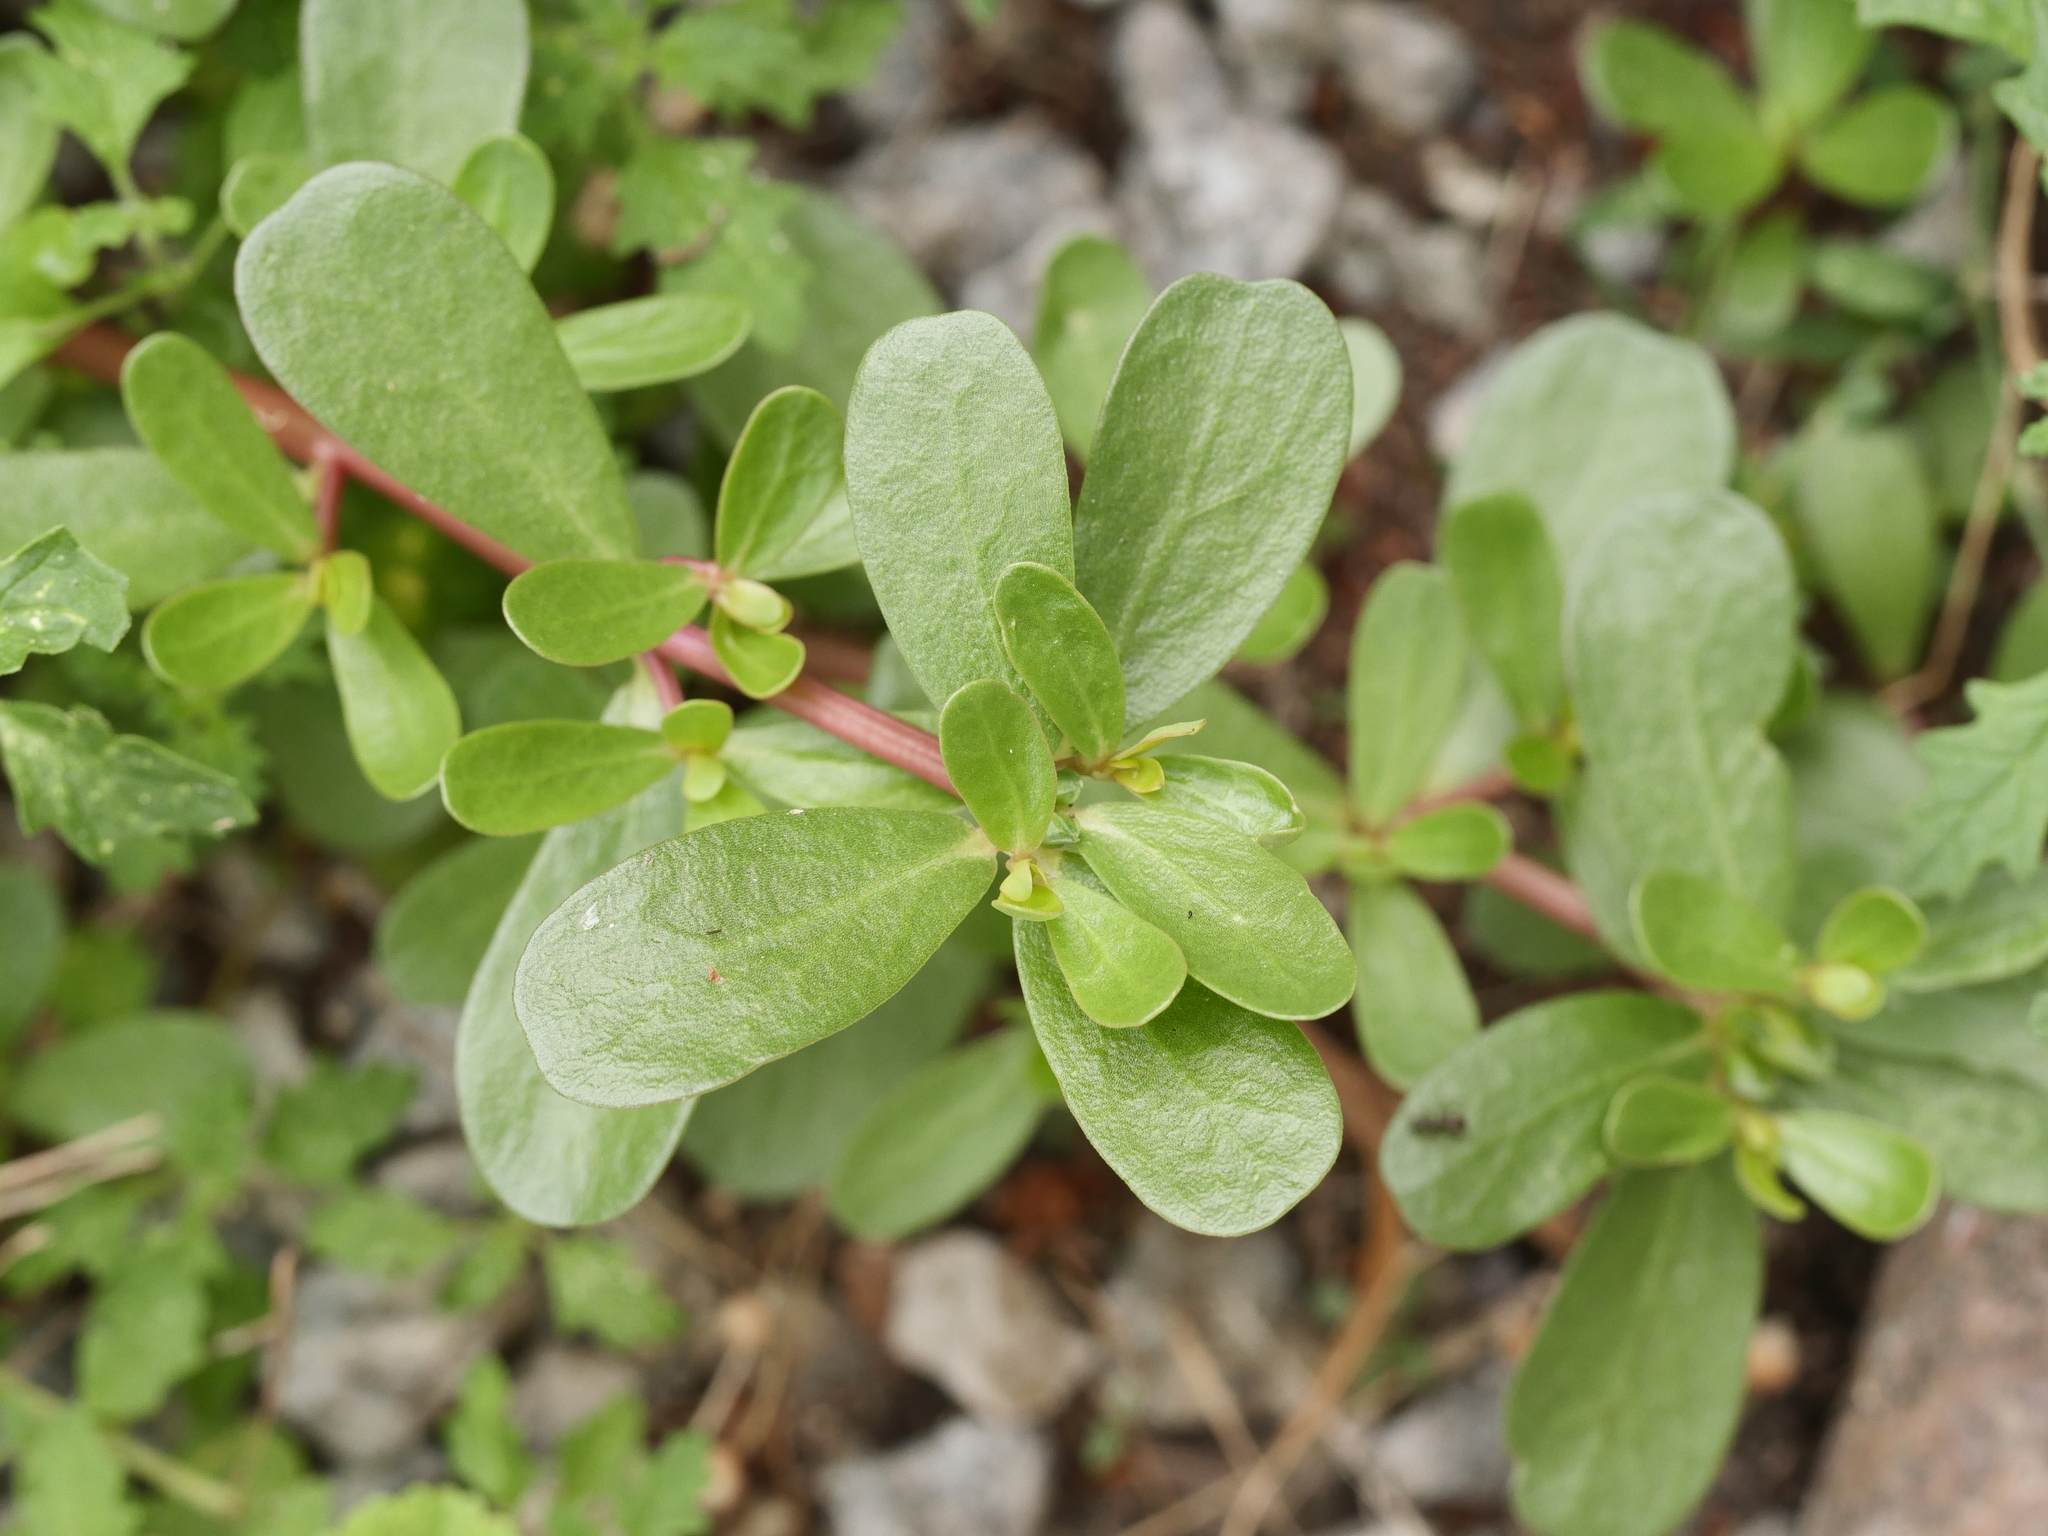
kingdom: Plantae
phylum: Tracheophyta
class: Magnoliopsida
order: Caryophyllales
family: Portulacaceae
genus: Portulaca
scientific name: Portulaca oleracea
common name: Common purslane
